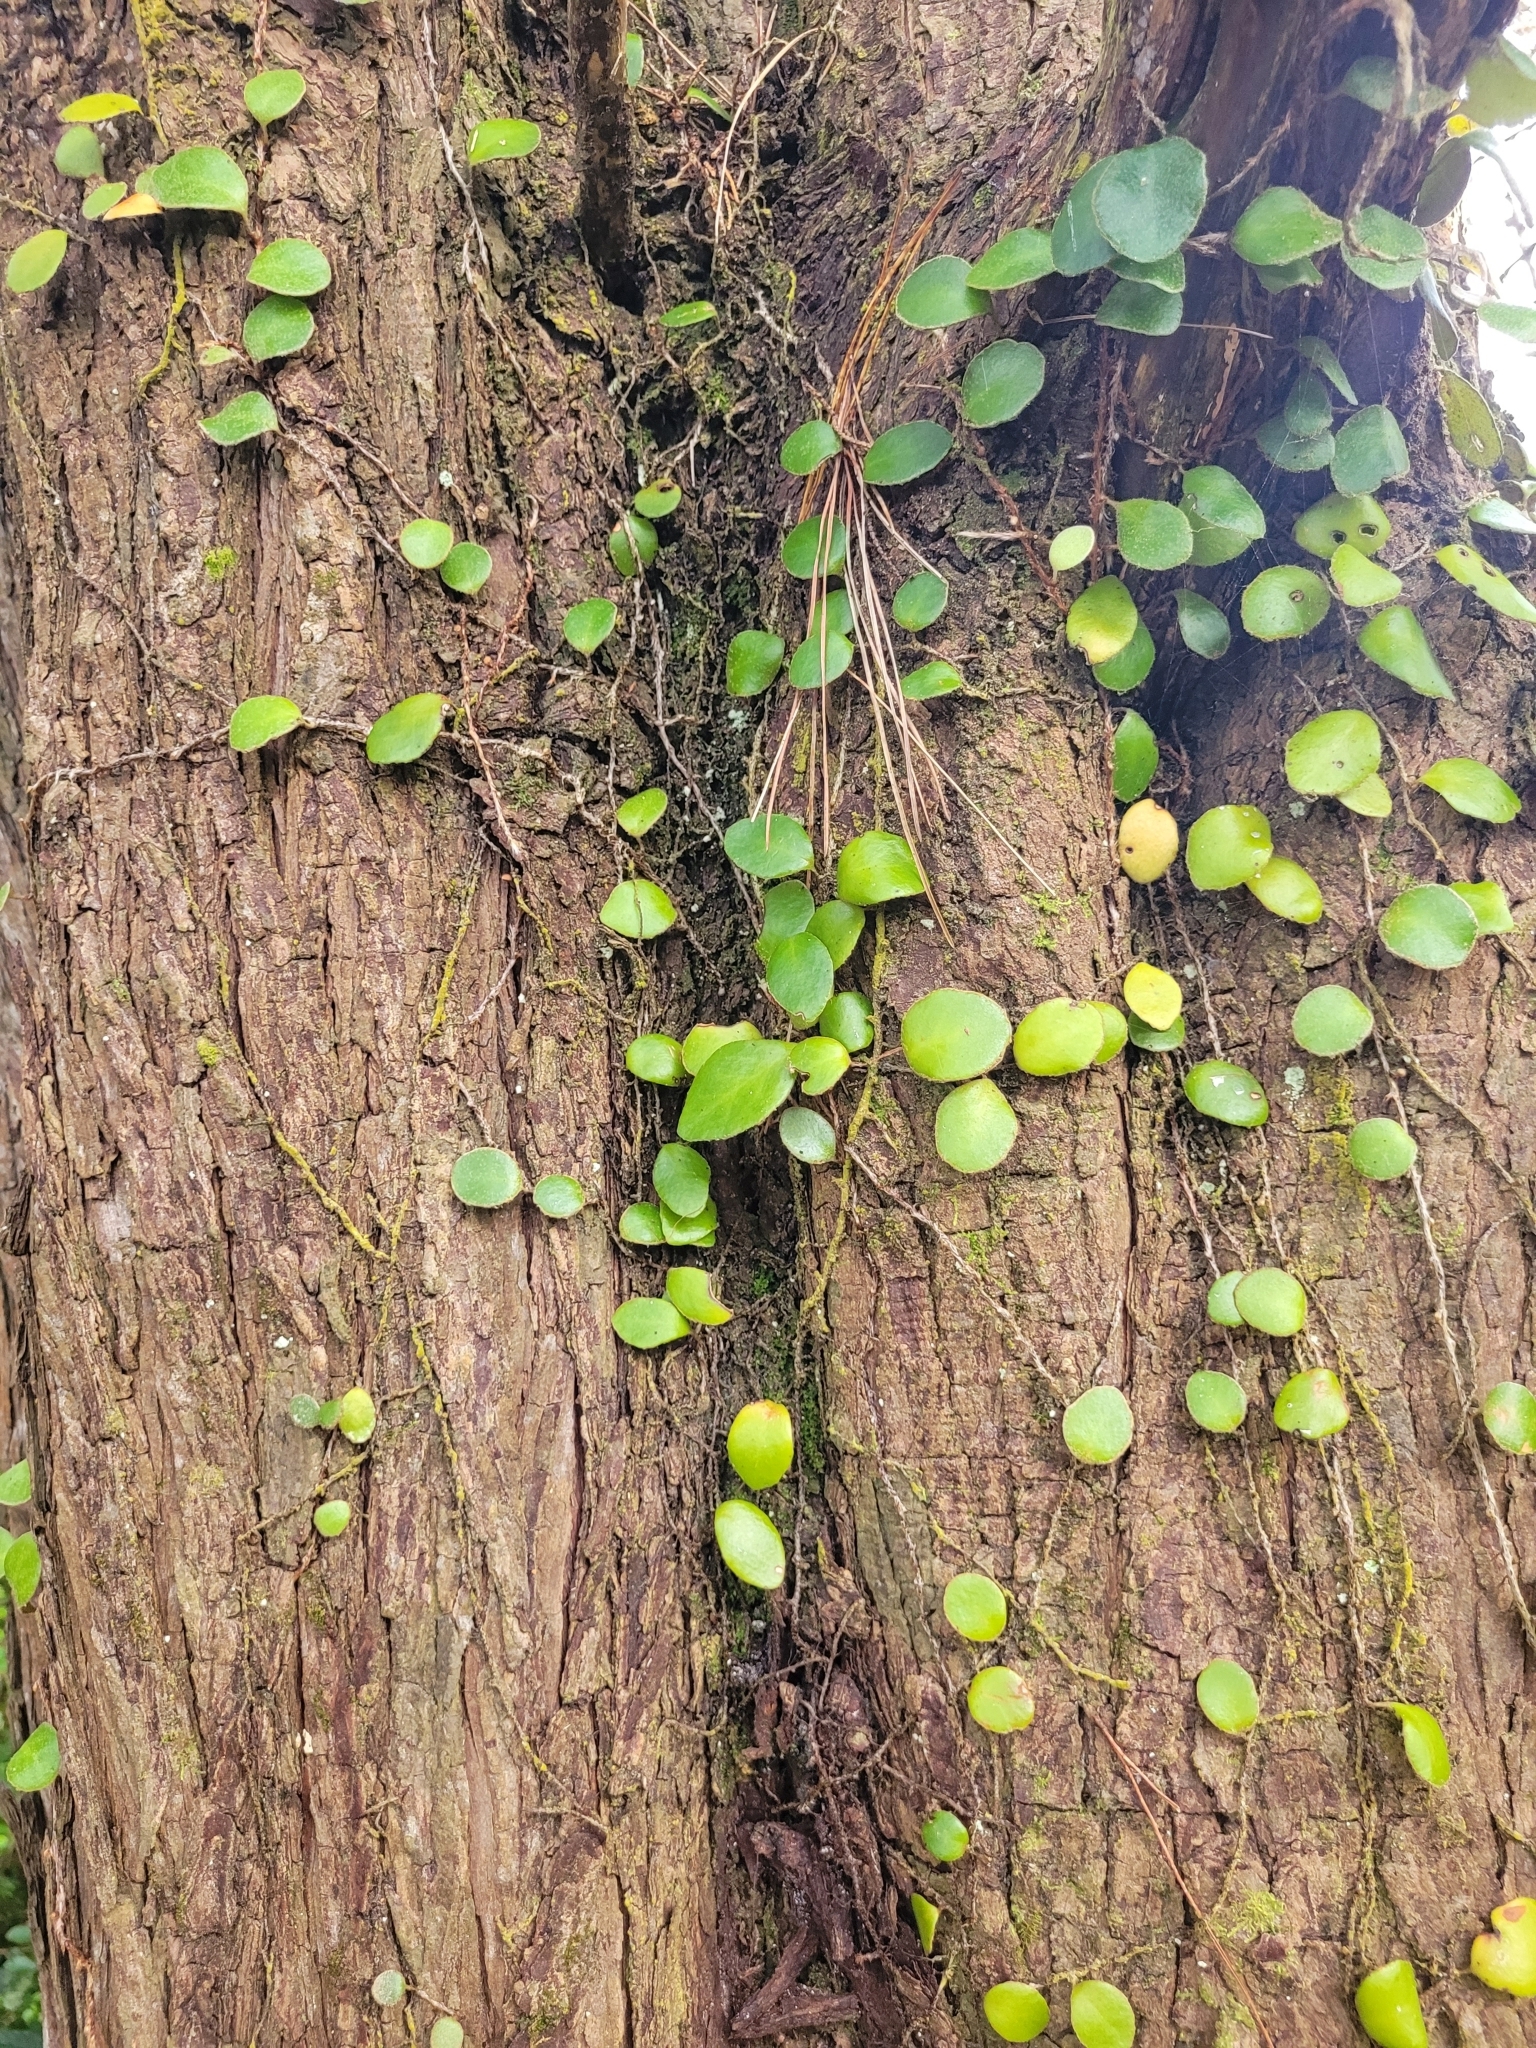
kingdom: Plantae
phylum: Tracheophyta
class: Polypodiopsida
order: Polypodiales
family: Polypodiaceae
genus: Pyrrosia
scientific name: Pyrrosia eleagnifolia
